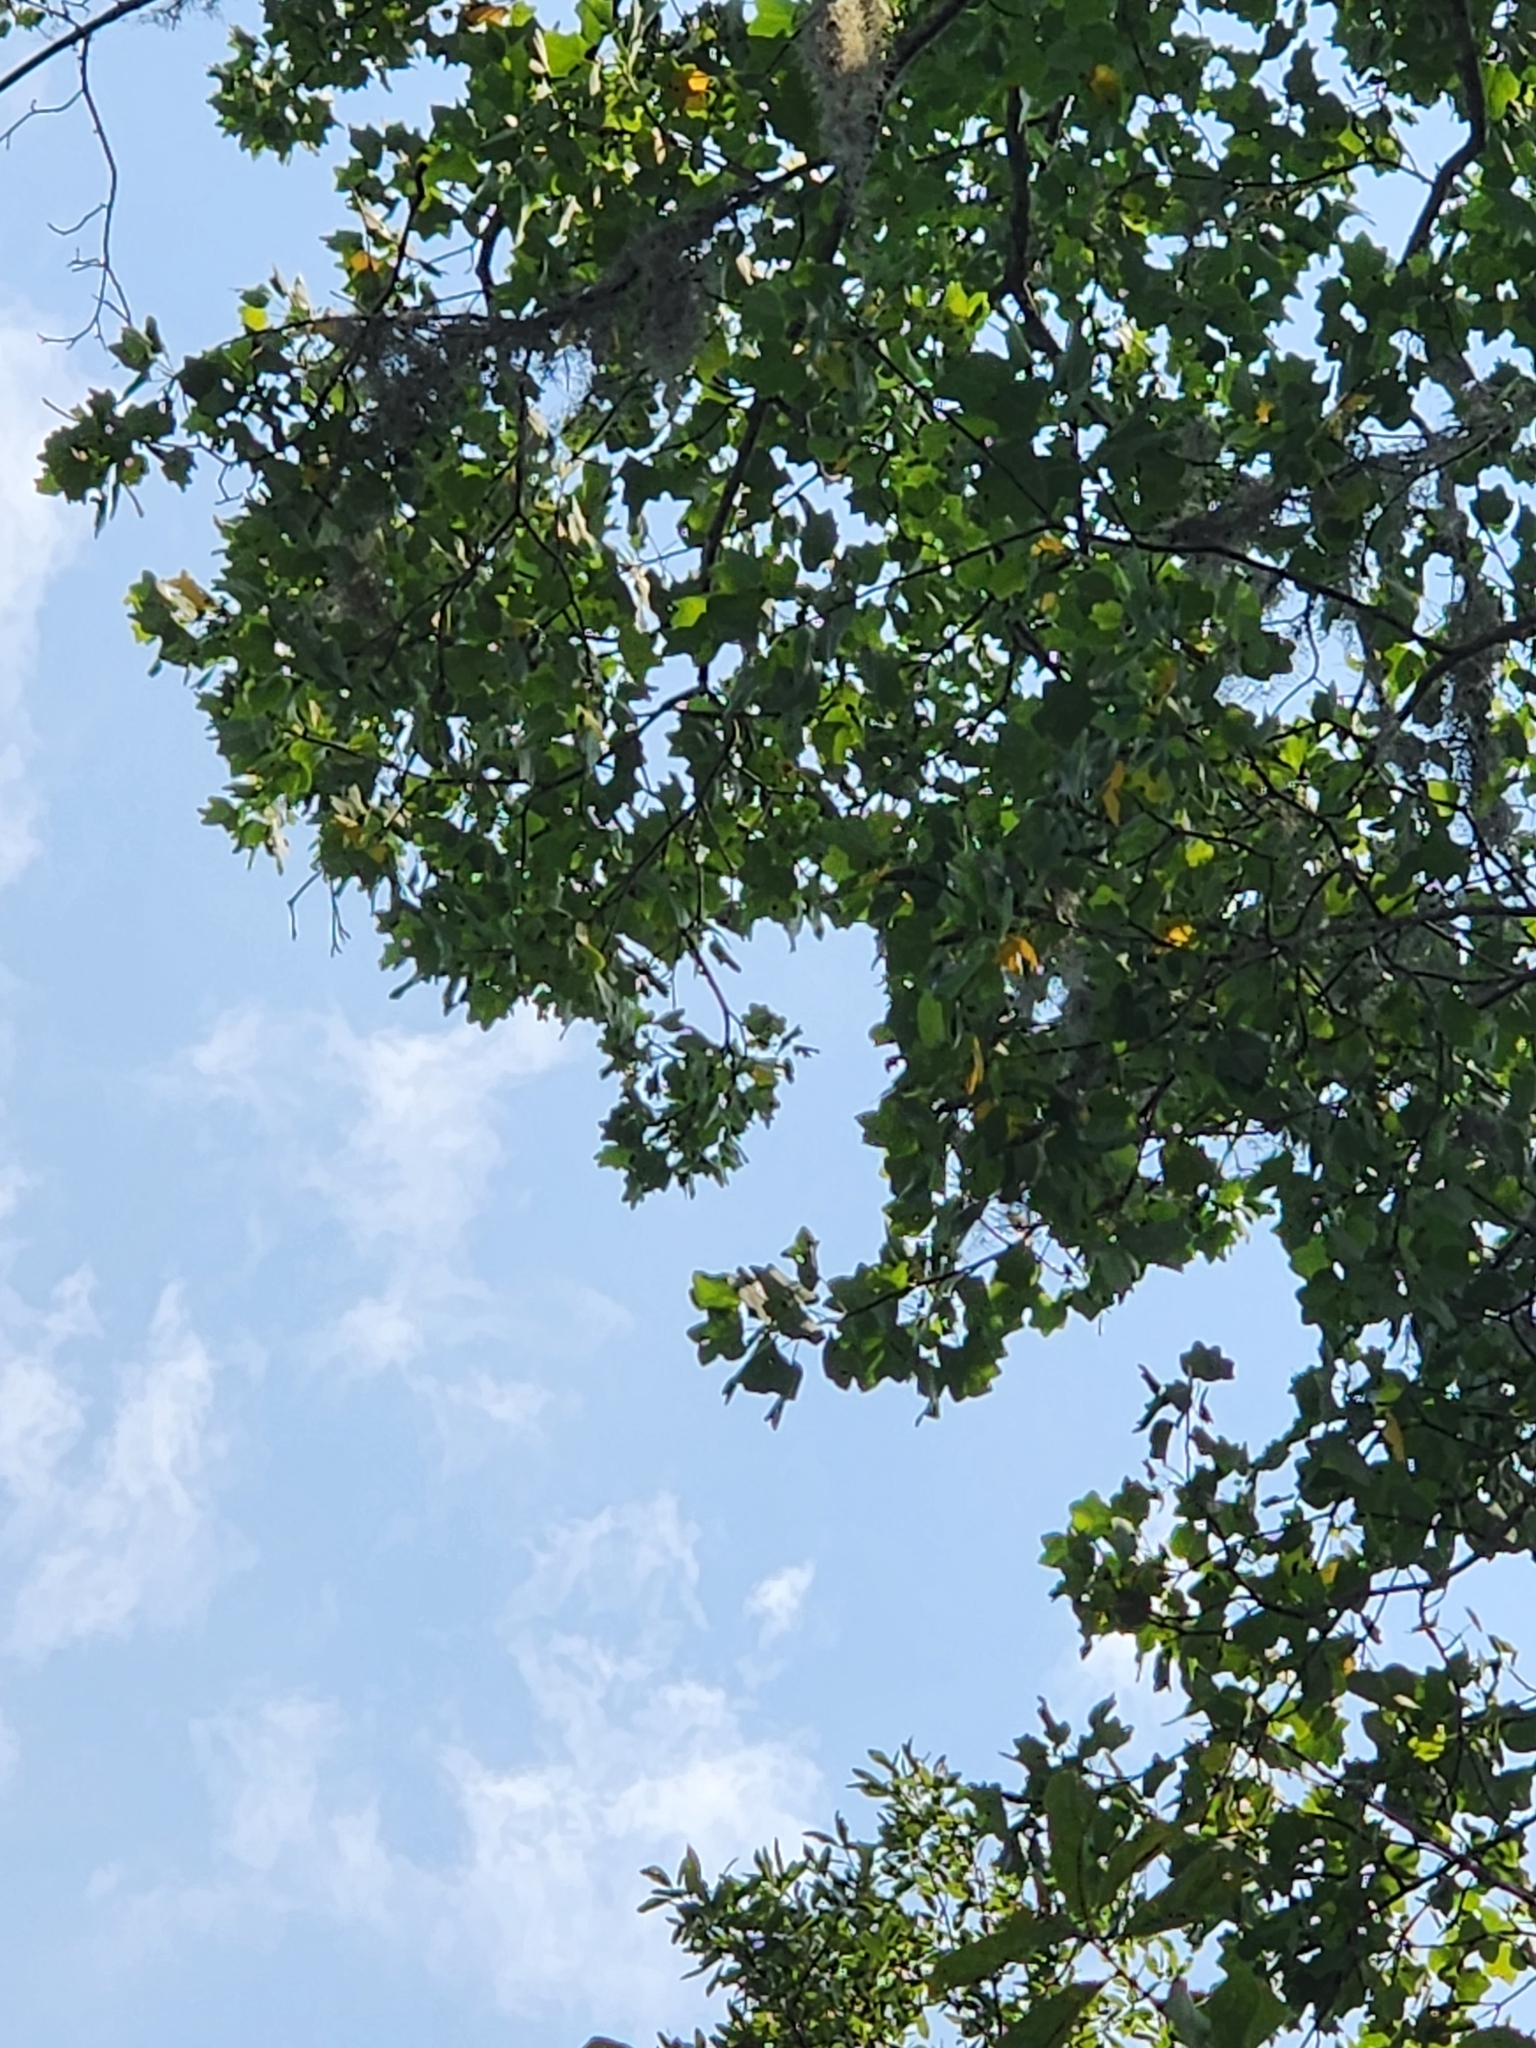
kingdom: Plantae
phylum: Tracheophyta
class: Magnoliopsida
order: Magnoliales
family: Magnoliaceae
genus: Liriodendron
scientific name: Liriodendron tulipifera
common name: Tulip tree
